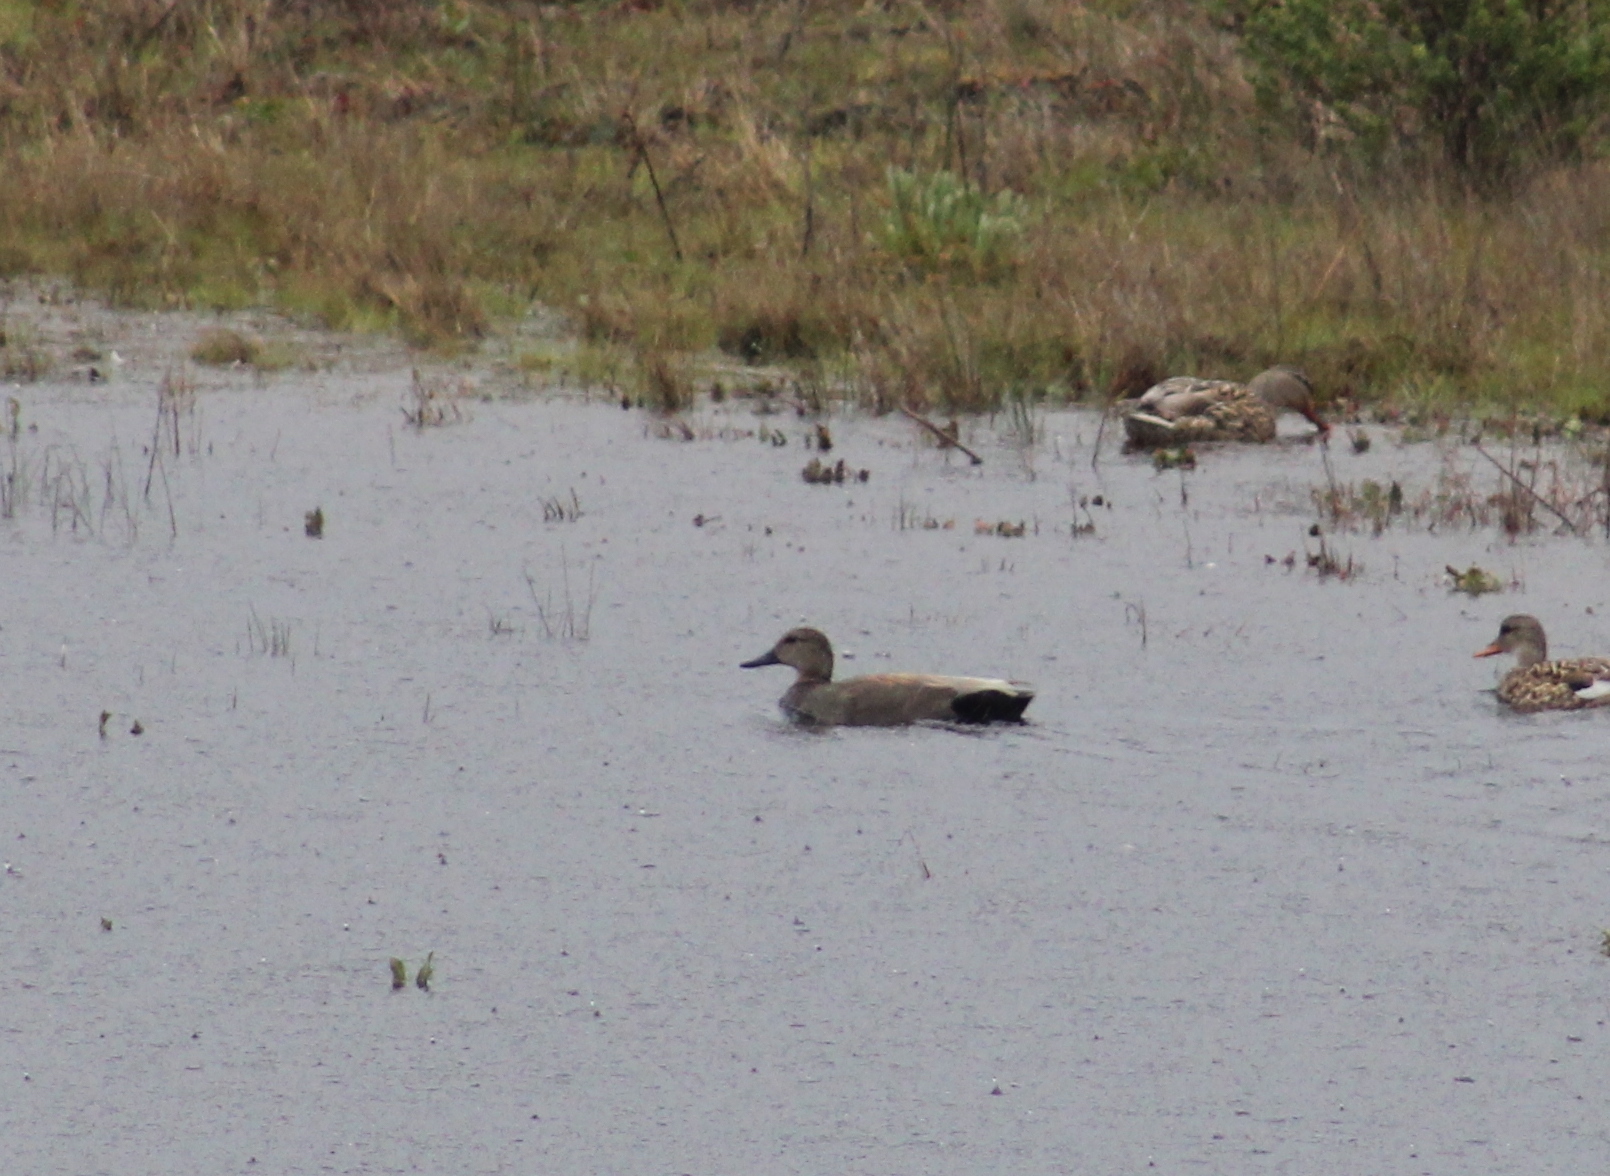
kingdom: Animalia
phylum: Chordata
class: Aves
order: Anseriformes
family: Anatidae
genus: Mareca
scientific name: Mareca strepera
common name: Gadwall
